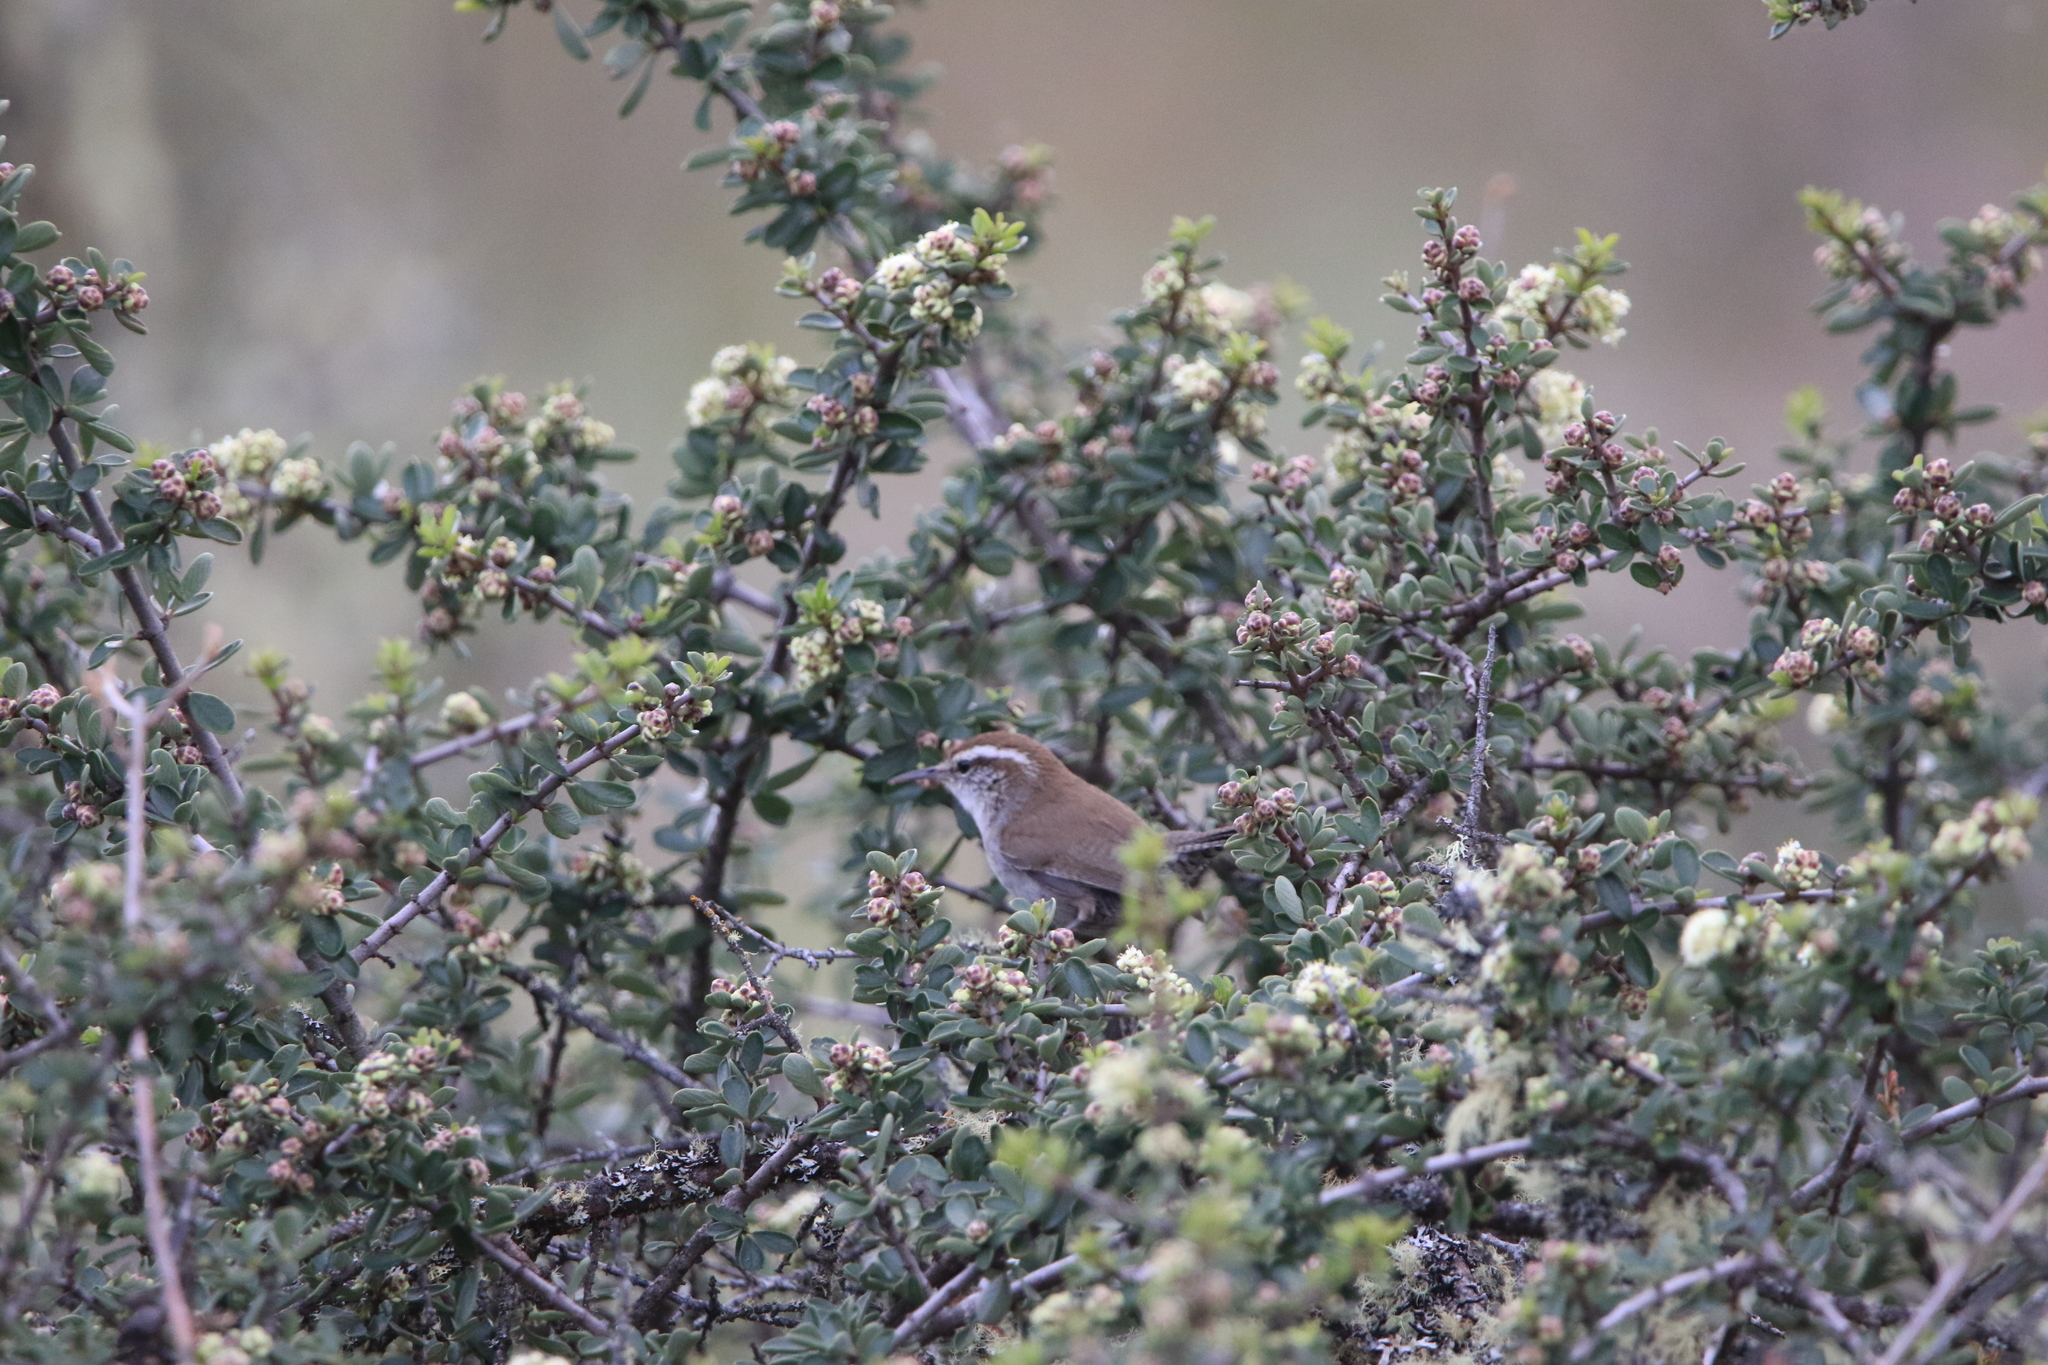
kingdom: Animalia
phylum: Chordata
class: Aves
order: Passeriformes
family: Troglodytidae
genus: Thryomanes
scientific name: Thryomanes bewickii
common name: Bewick's wren
